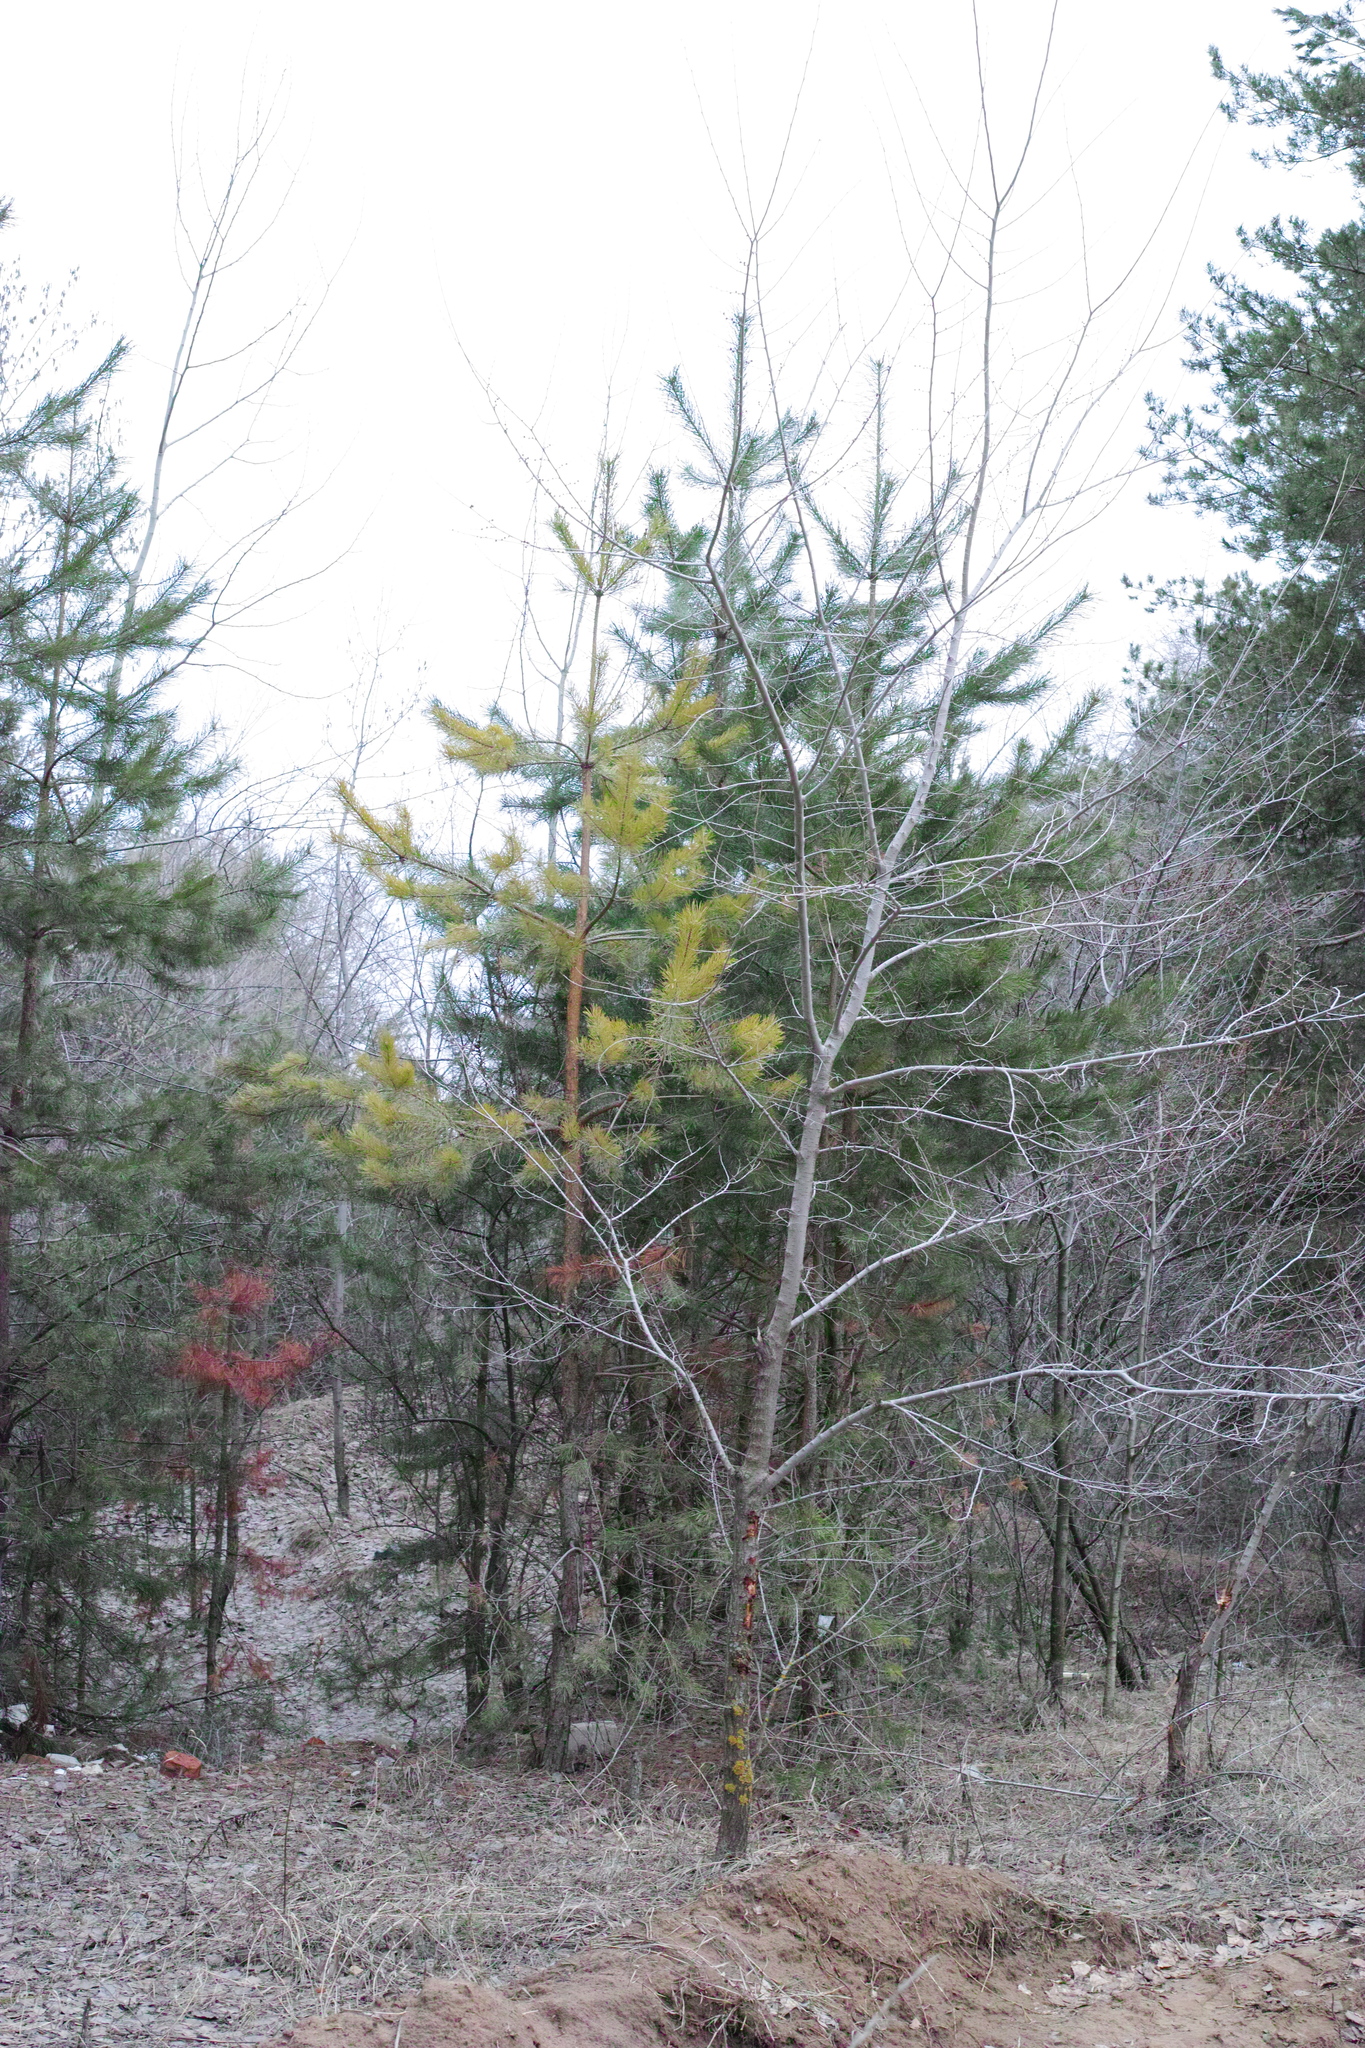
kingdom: Plantae
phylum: Tracheophyta
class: Pinopsida
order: Pinales
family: Pinaceae
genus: Pinus
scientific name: Pinus sylvestris
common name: Scots pine
